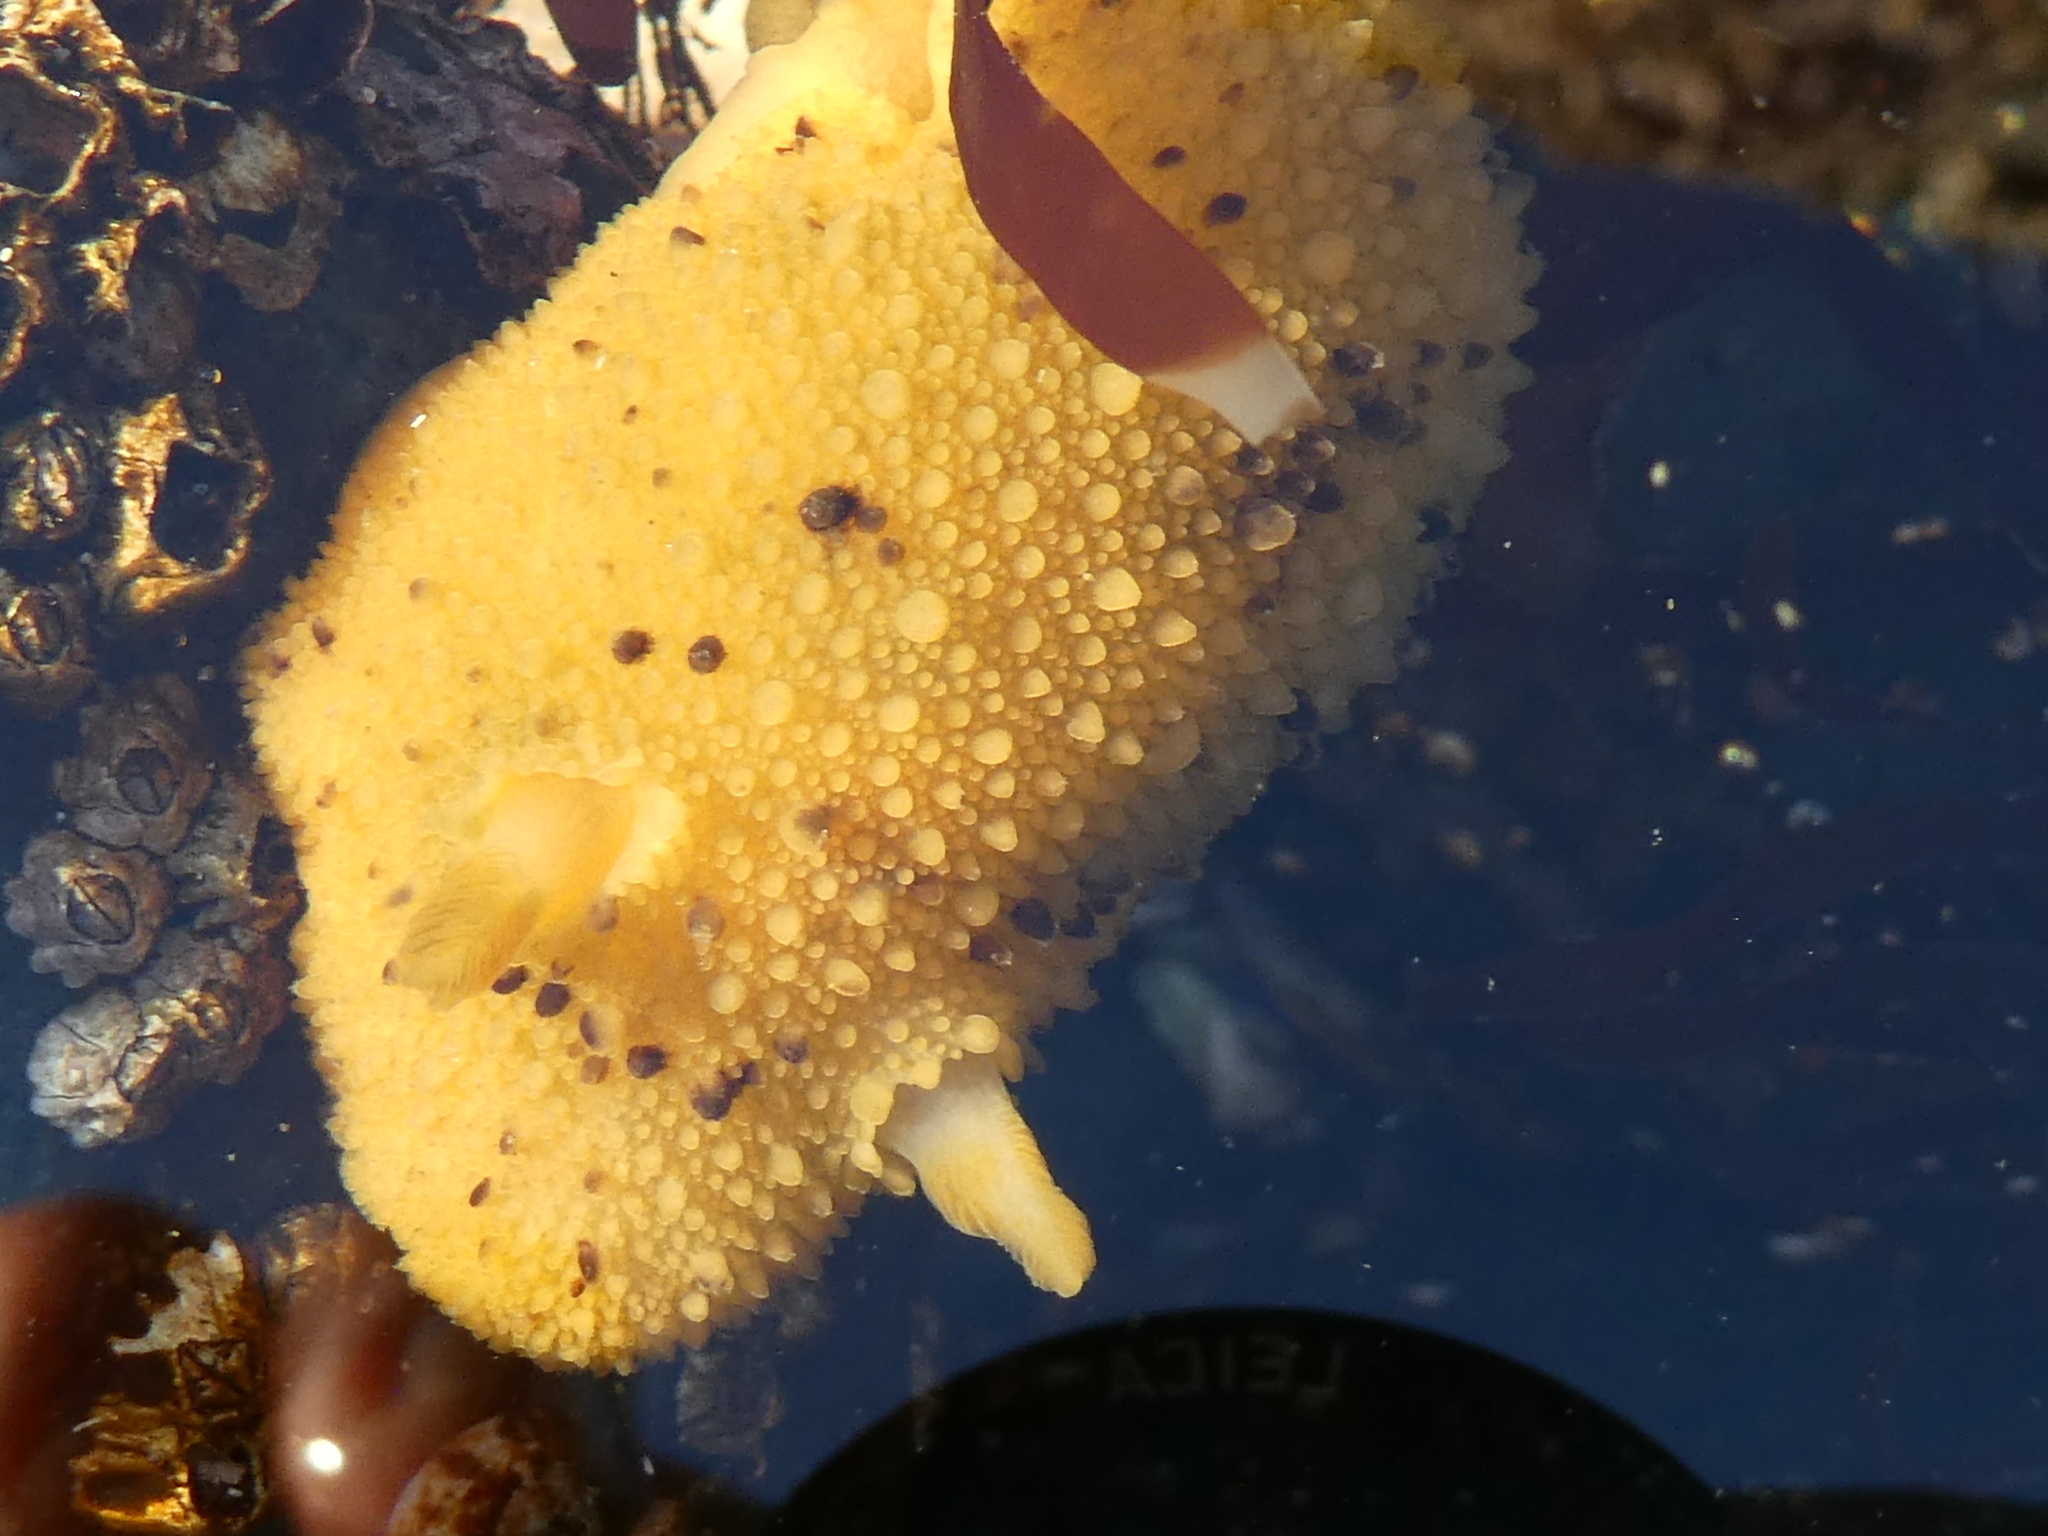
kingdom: Animalia
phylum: Mollusca
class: Gastropoda
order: Nudibranchia
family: Dorididae
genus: Doris
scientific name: Doris montereyensis
